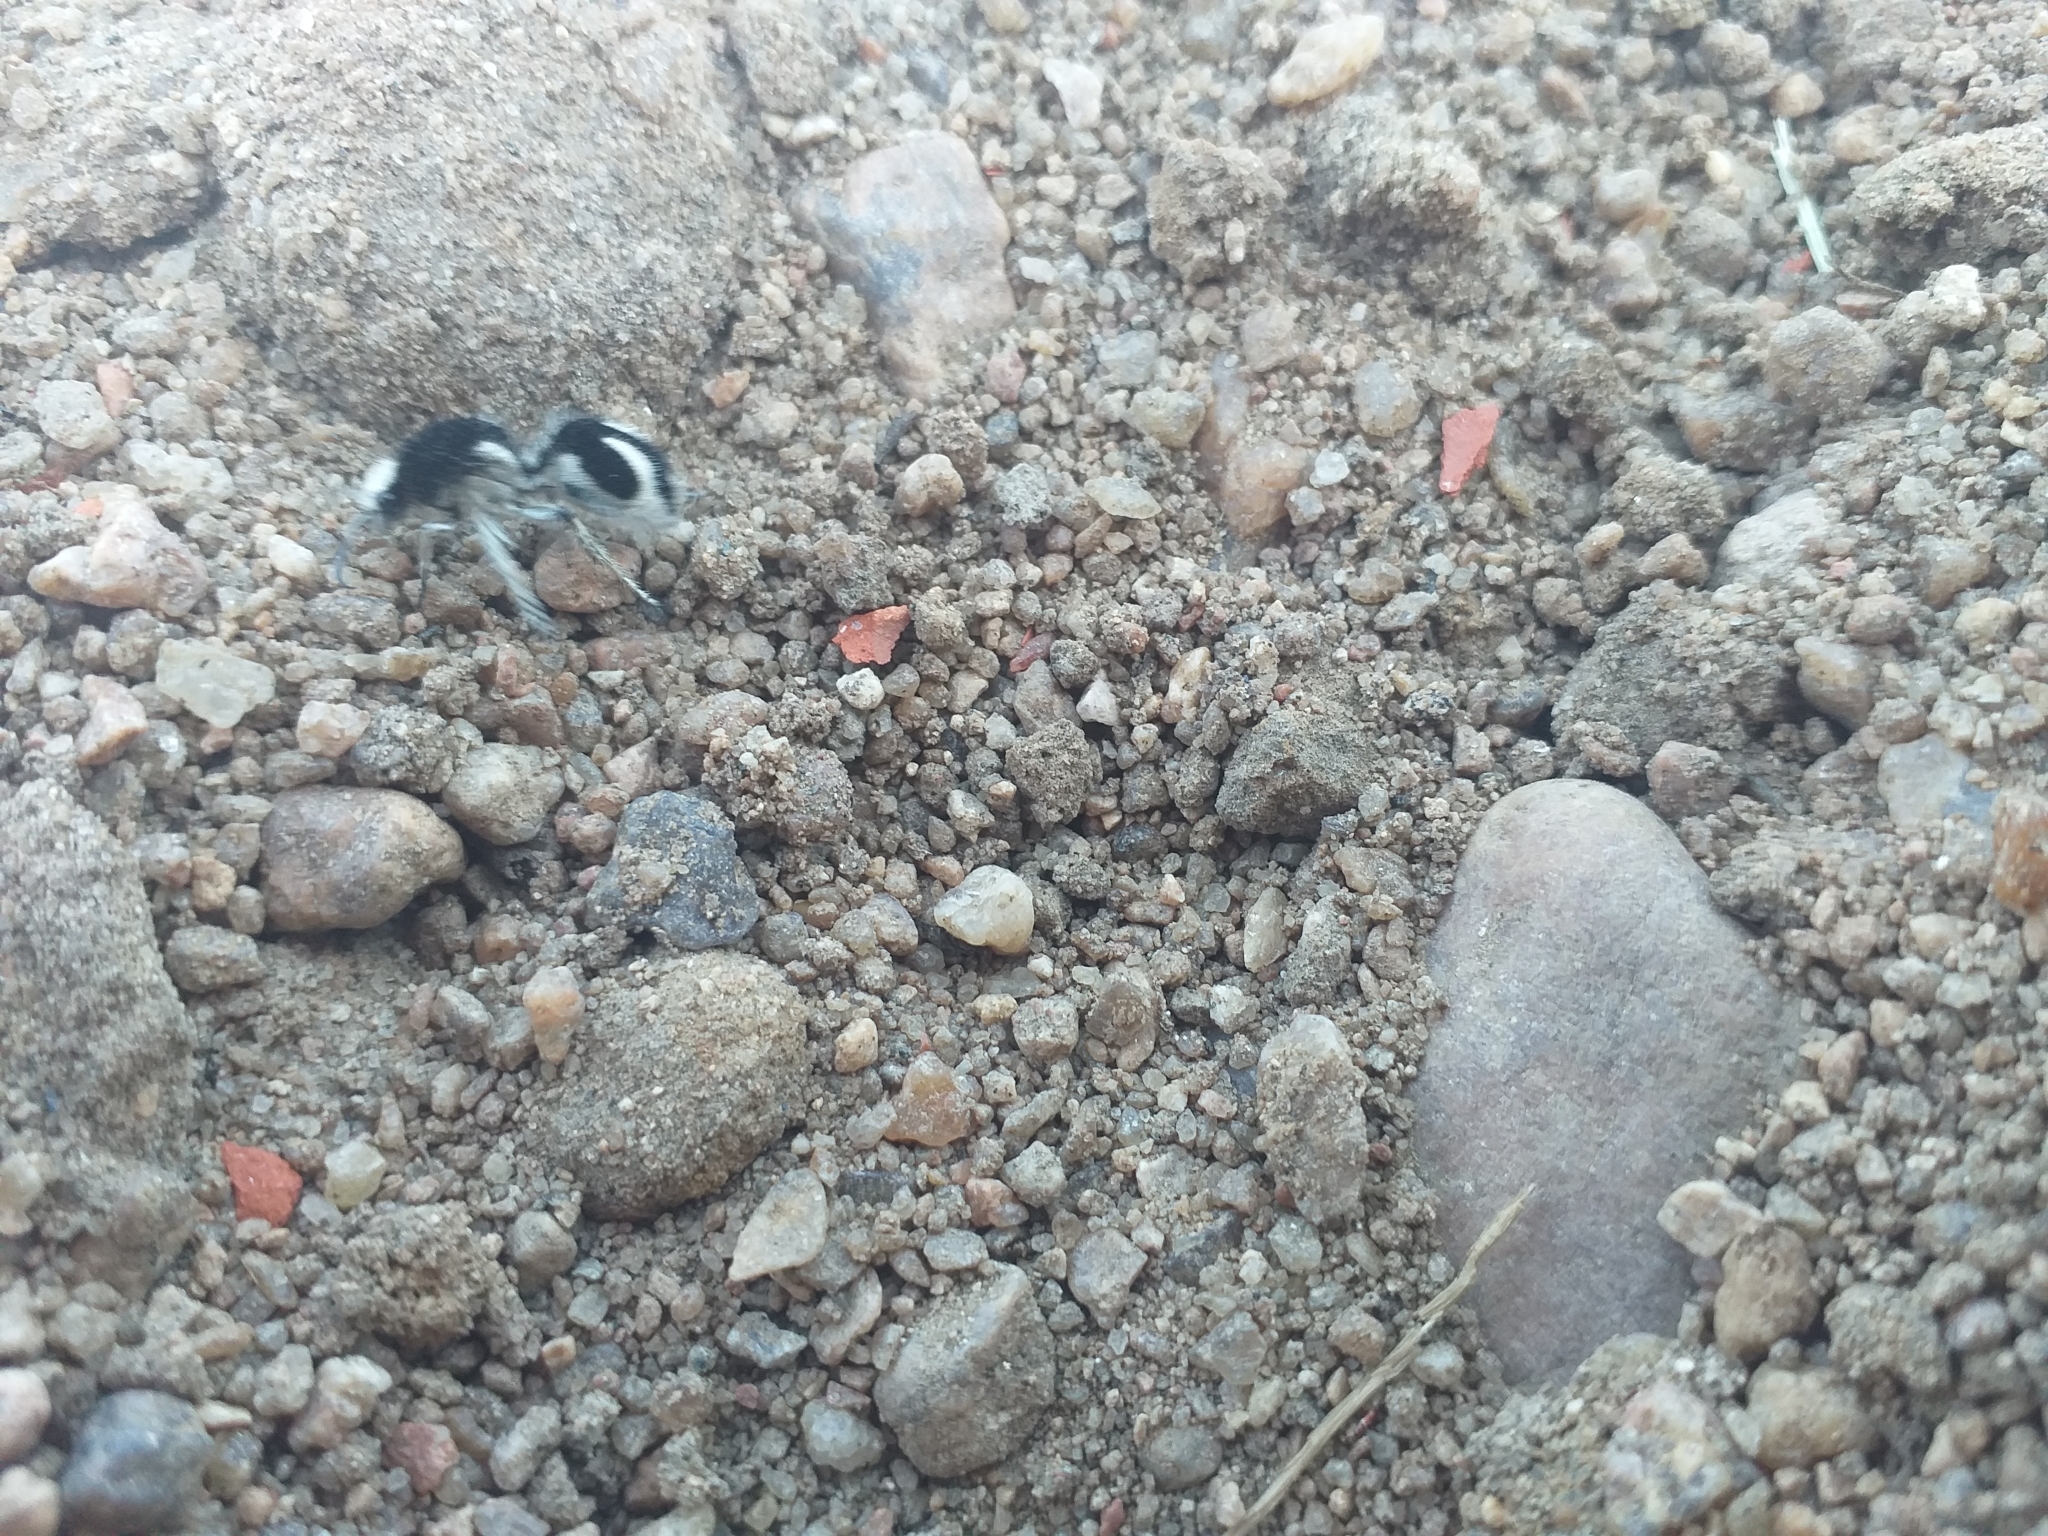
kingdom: Animalia
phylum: Arthropoda
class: Insecta
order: Hymenoptera
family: Mutillidae
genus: Traumatomutilla
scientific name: Traumatomutilla bifurca
